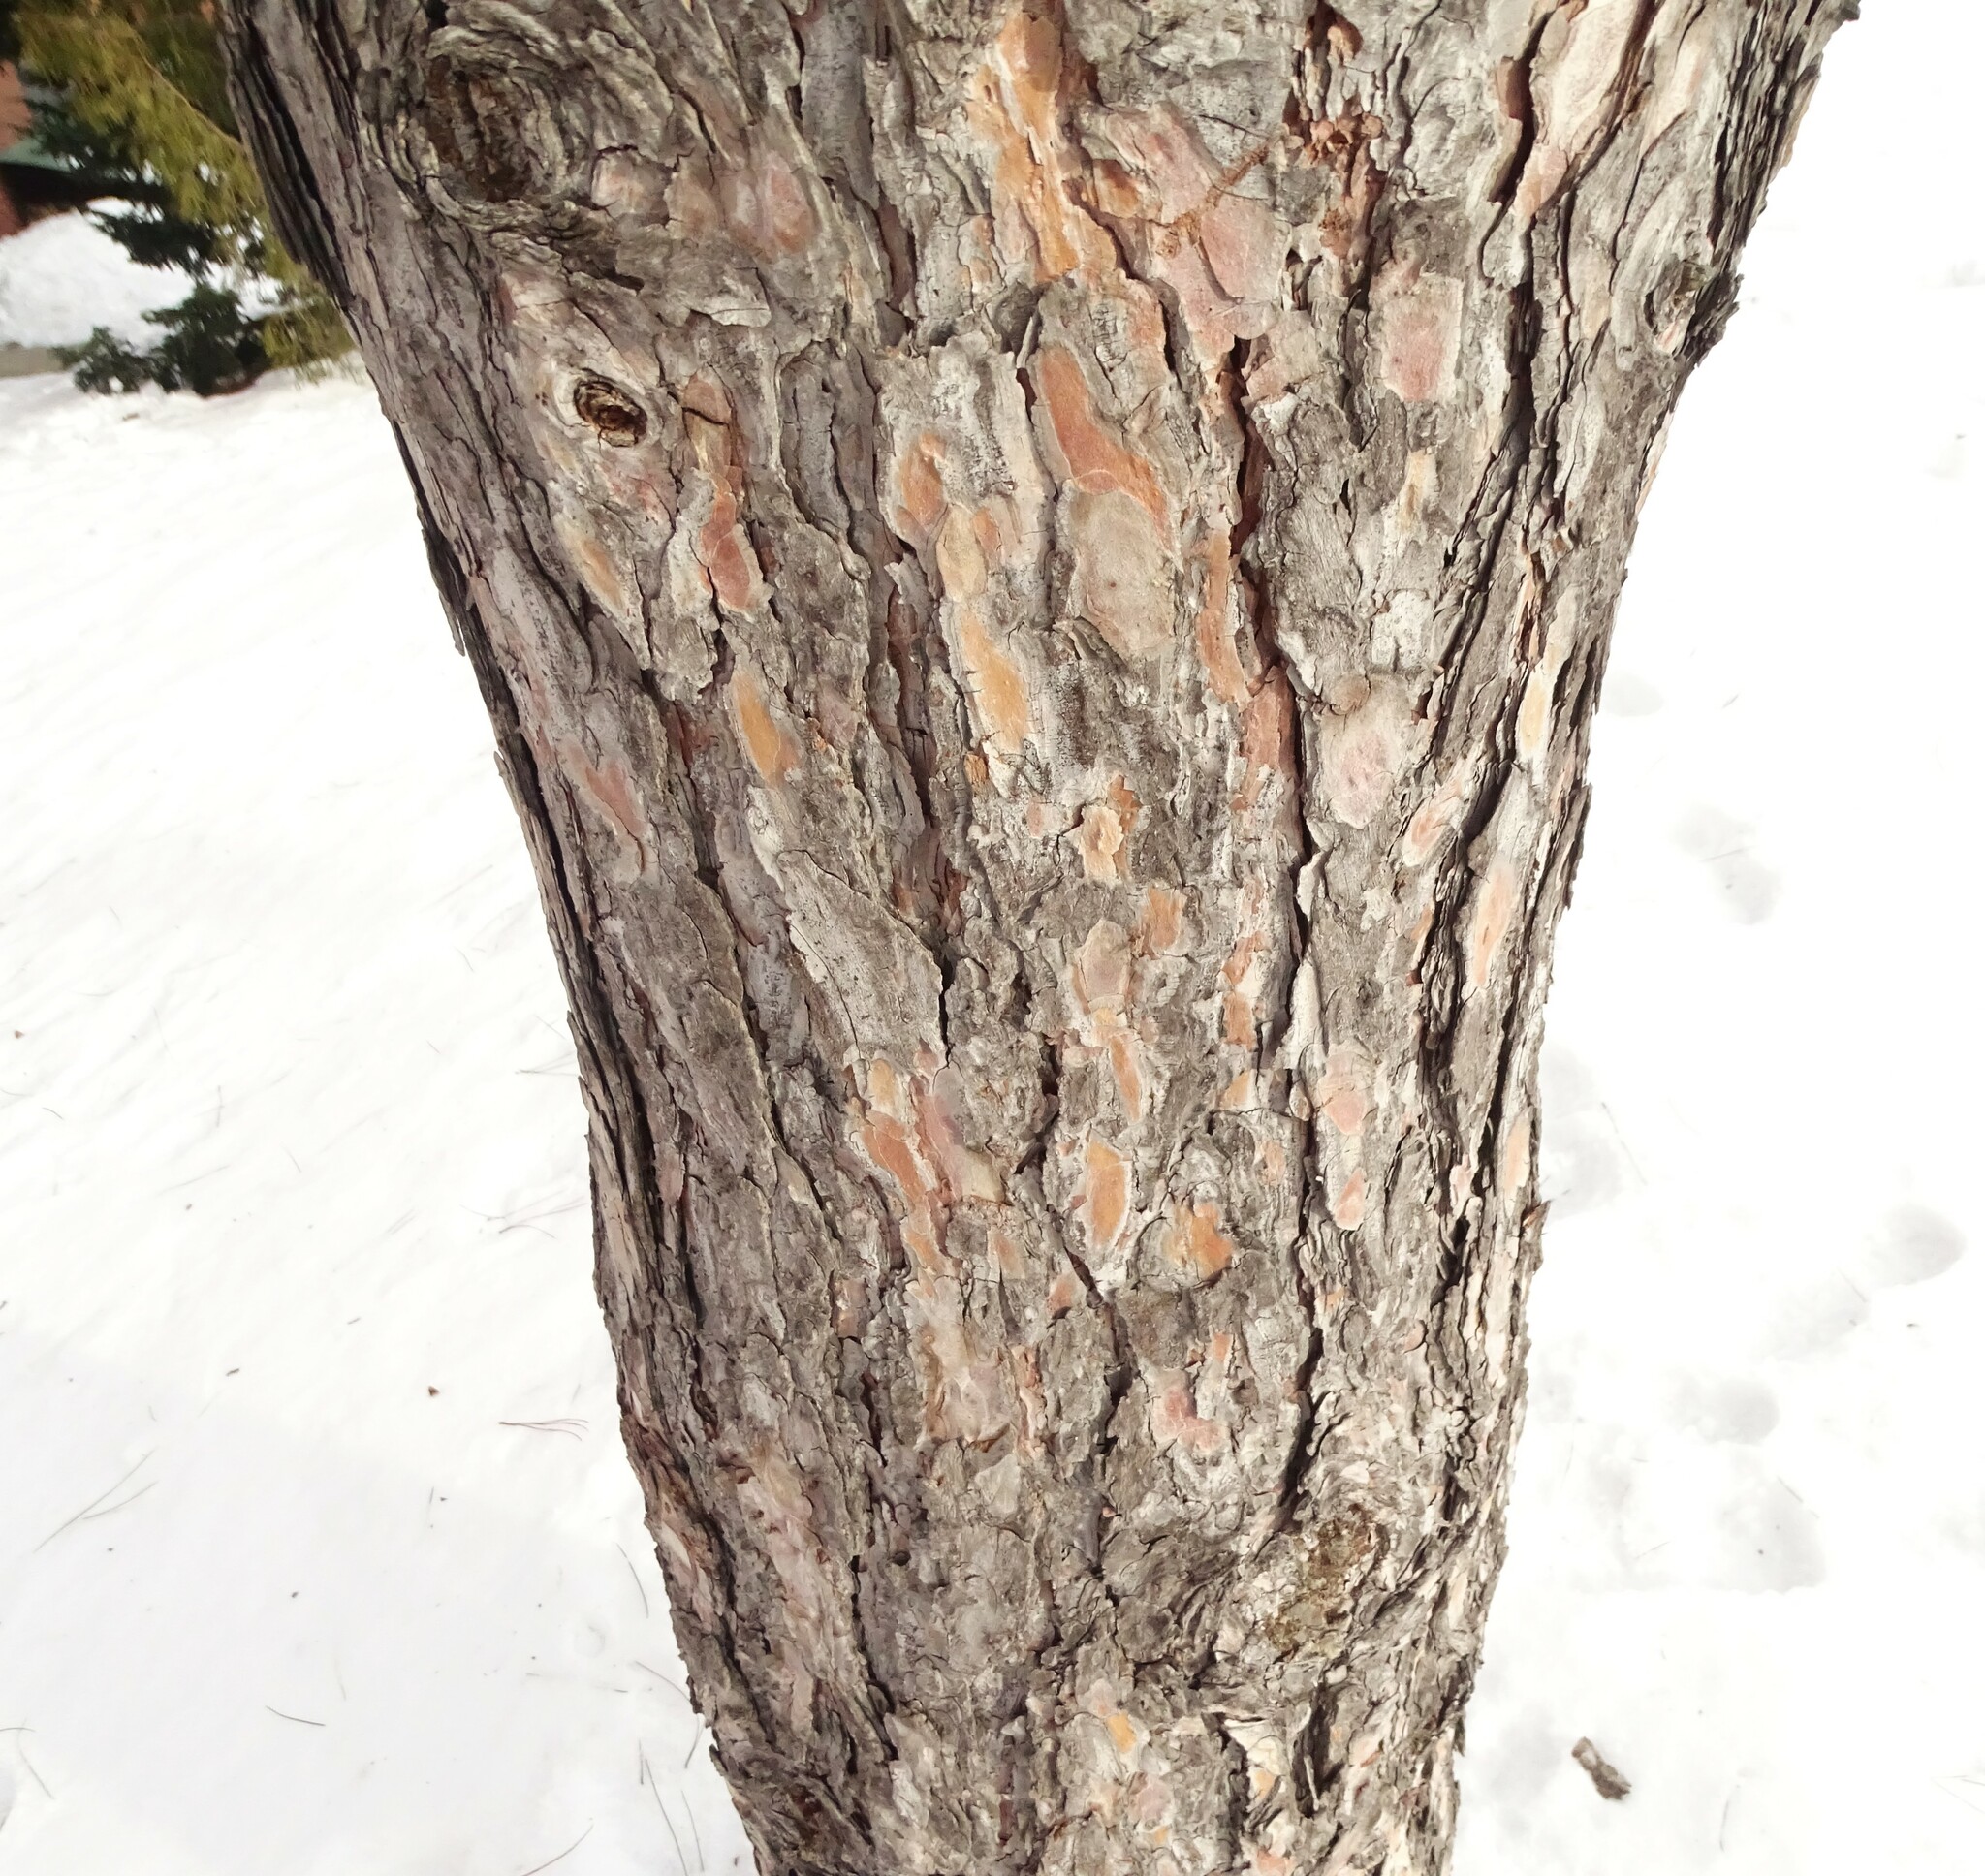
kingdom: Plantae
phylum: Tracheophyta
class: Pinopsida
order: Pinales
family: Pinaceae
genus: Pinus
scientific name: Pinus resinosa
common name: Norway pine
